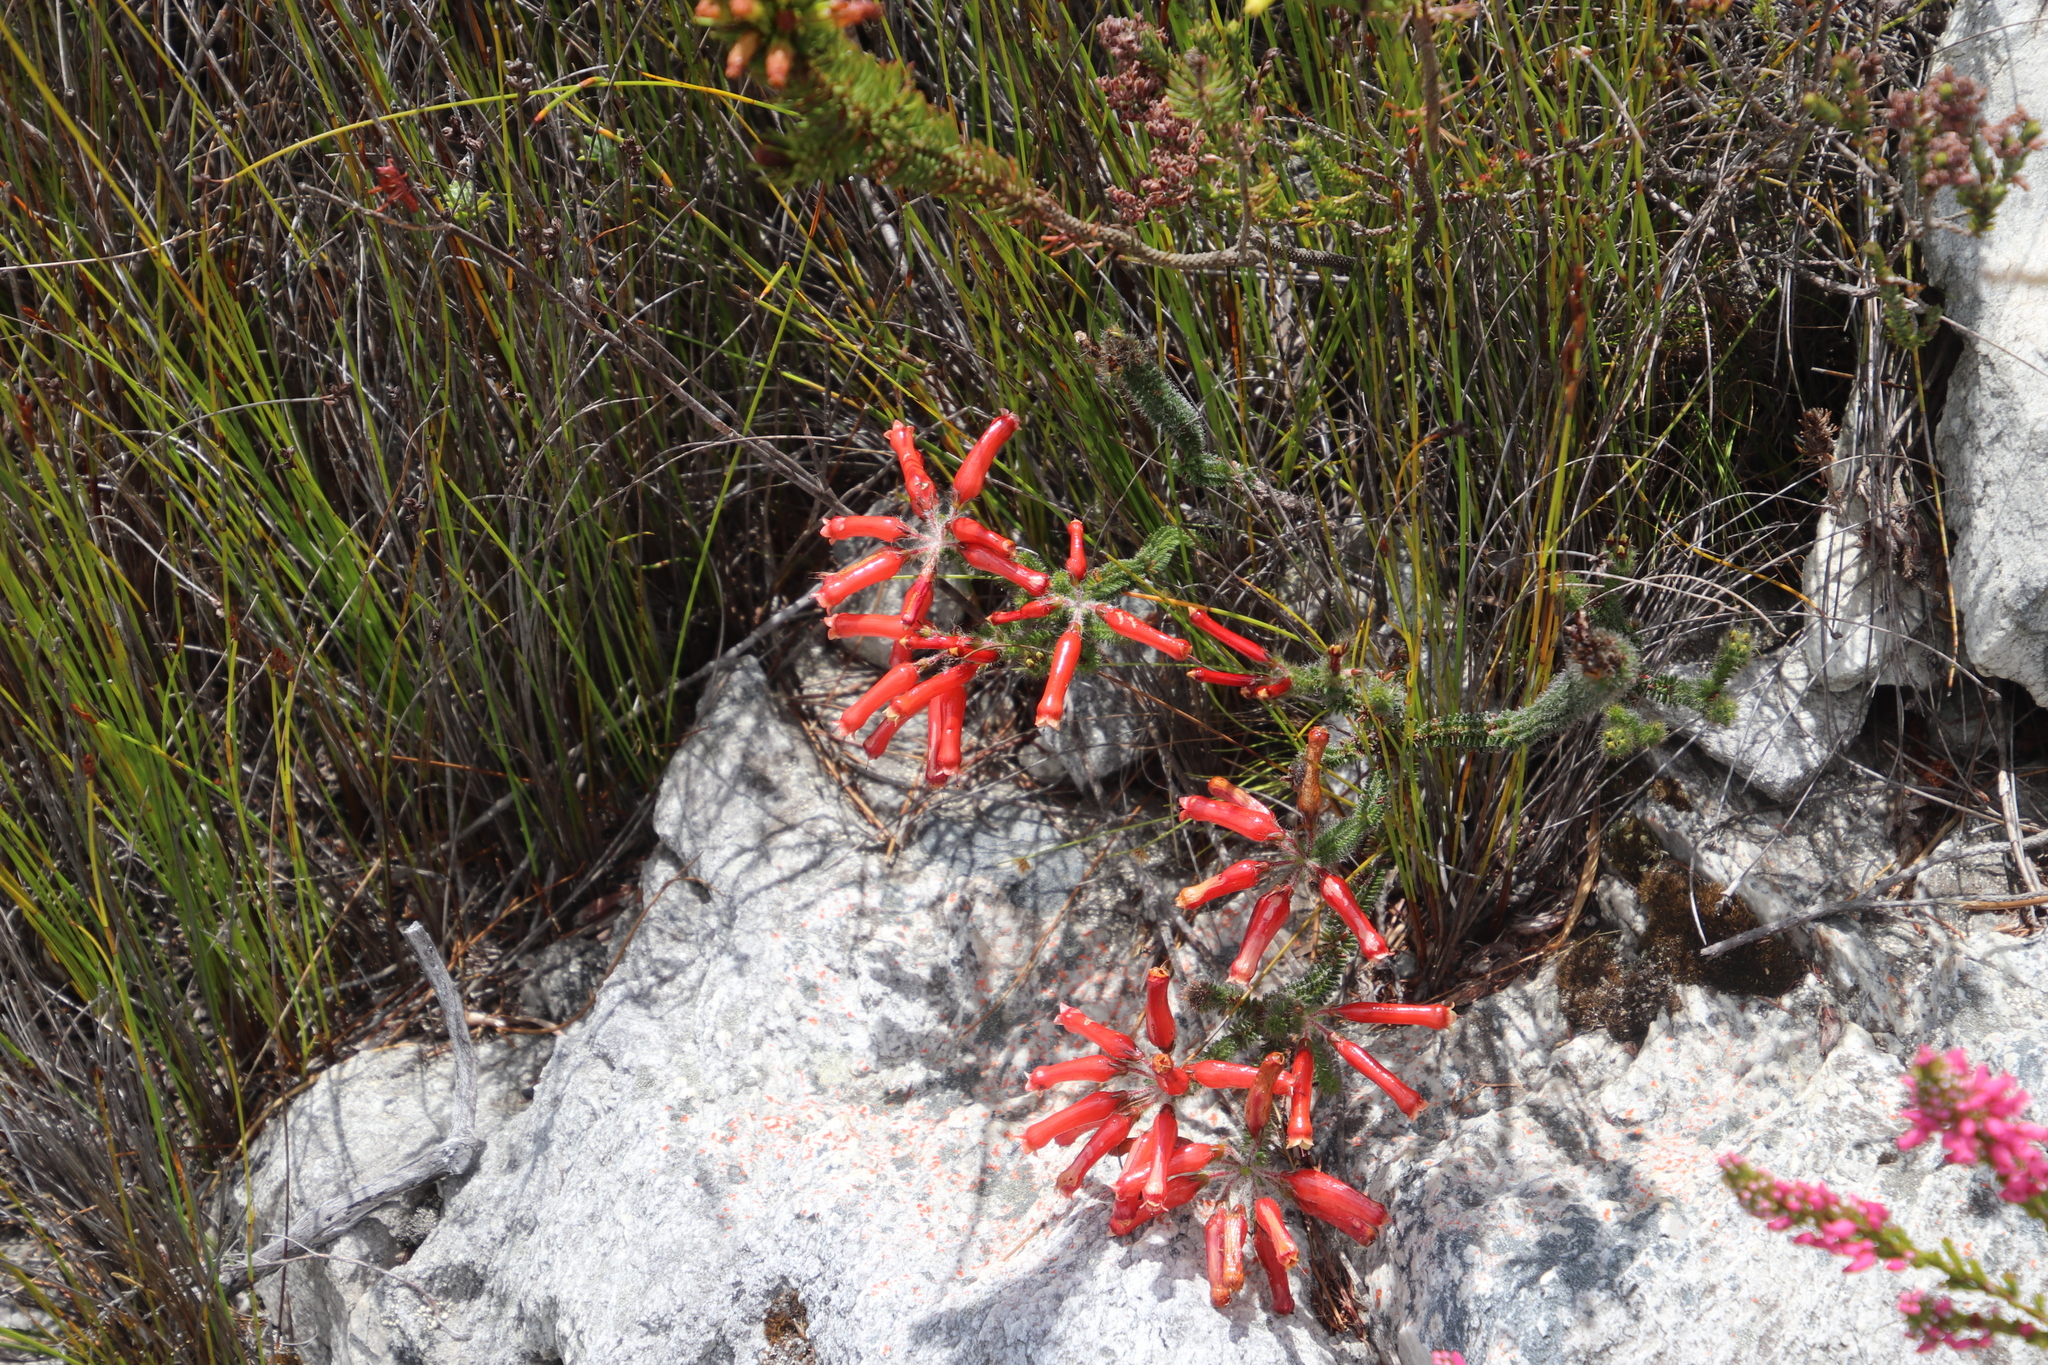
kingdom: Plantae
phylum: Tracheophyta
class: Magnoliopsida
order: Ericales
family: Ericaceae
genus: Erica
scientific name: Erica massonii
